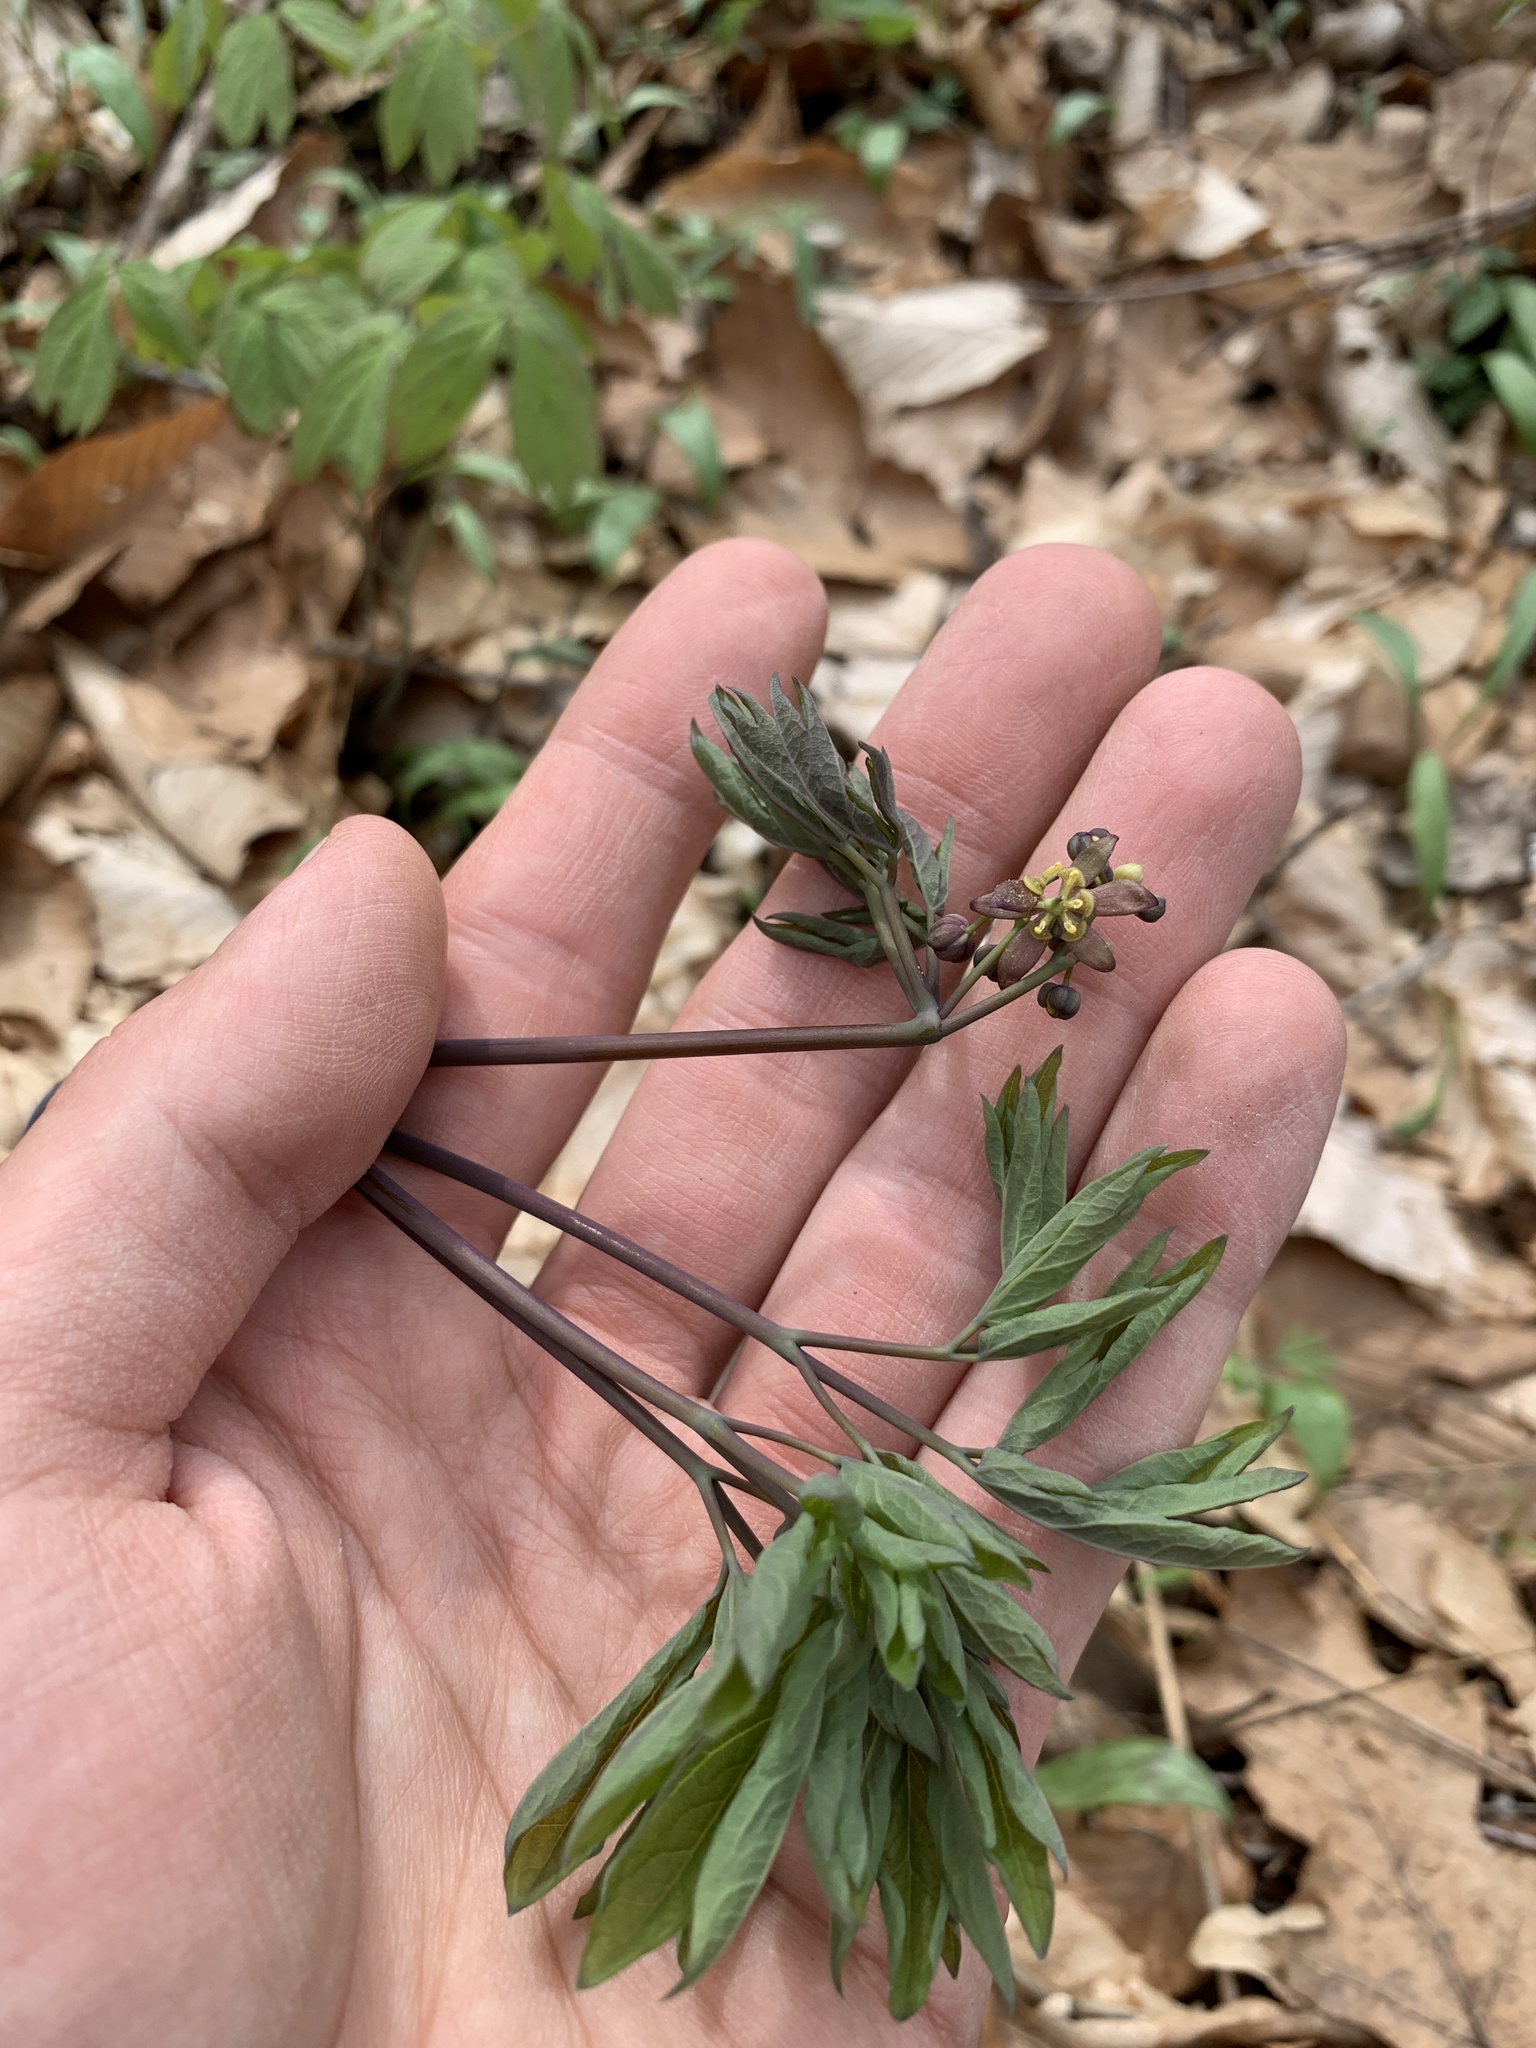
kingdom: Plantae
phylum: Tracheophyta
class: Magnoliopsida
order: Ranunculales
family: Berberidaceae
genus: Caulophyllum
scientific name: Caulophyllum giganteum
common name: Blue cohosh
